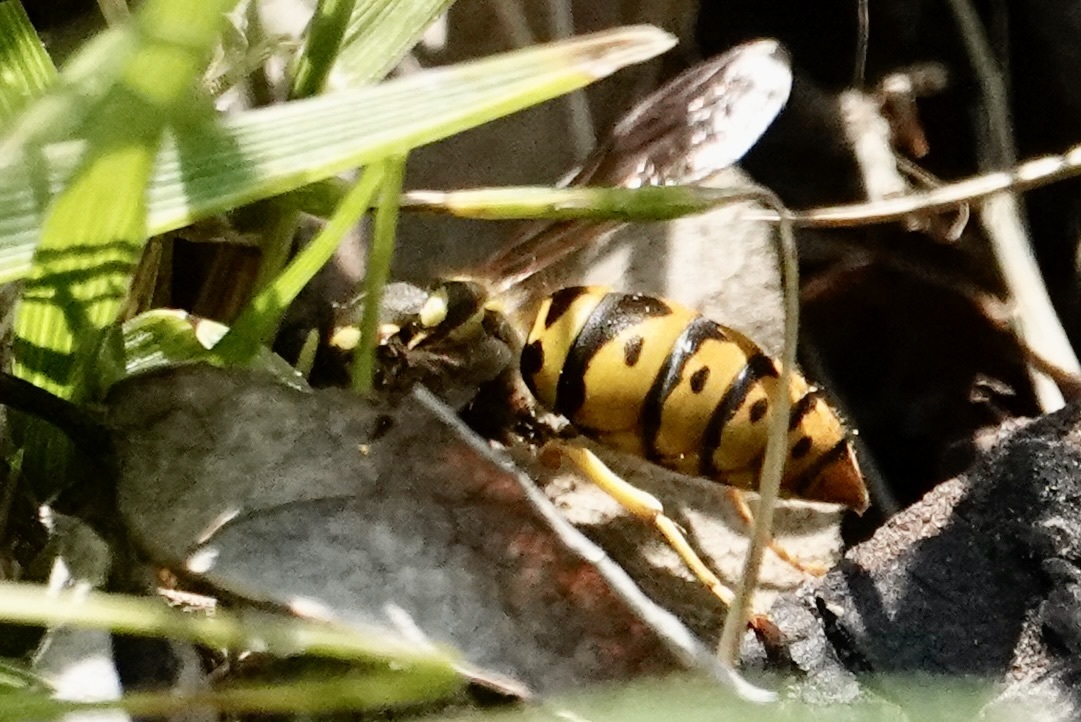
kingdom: Animalia
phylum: Arthropoda
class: Insecta
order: Hymenoptera
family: Vespidae
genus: Vespula
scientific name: Vespula maculifrons
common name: Eastern yellowjacket
